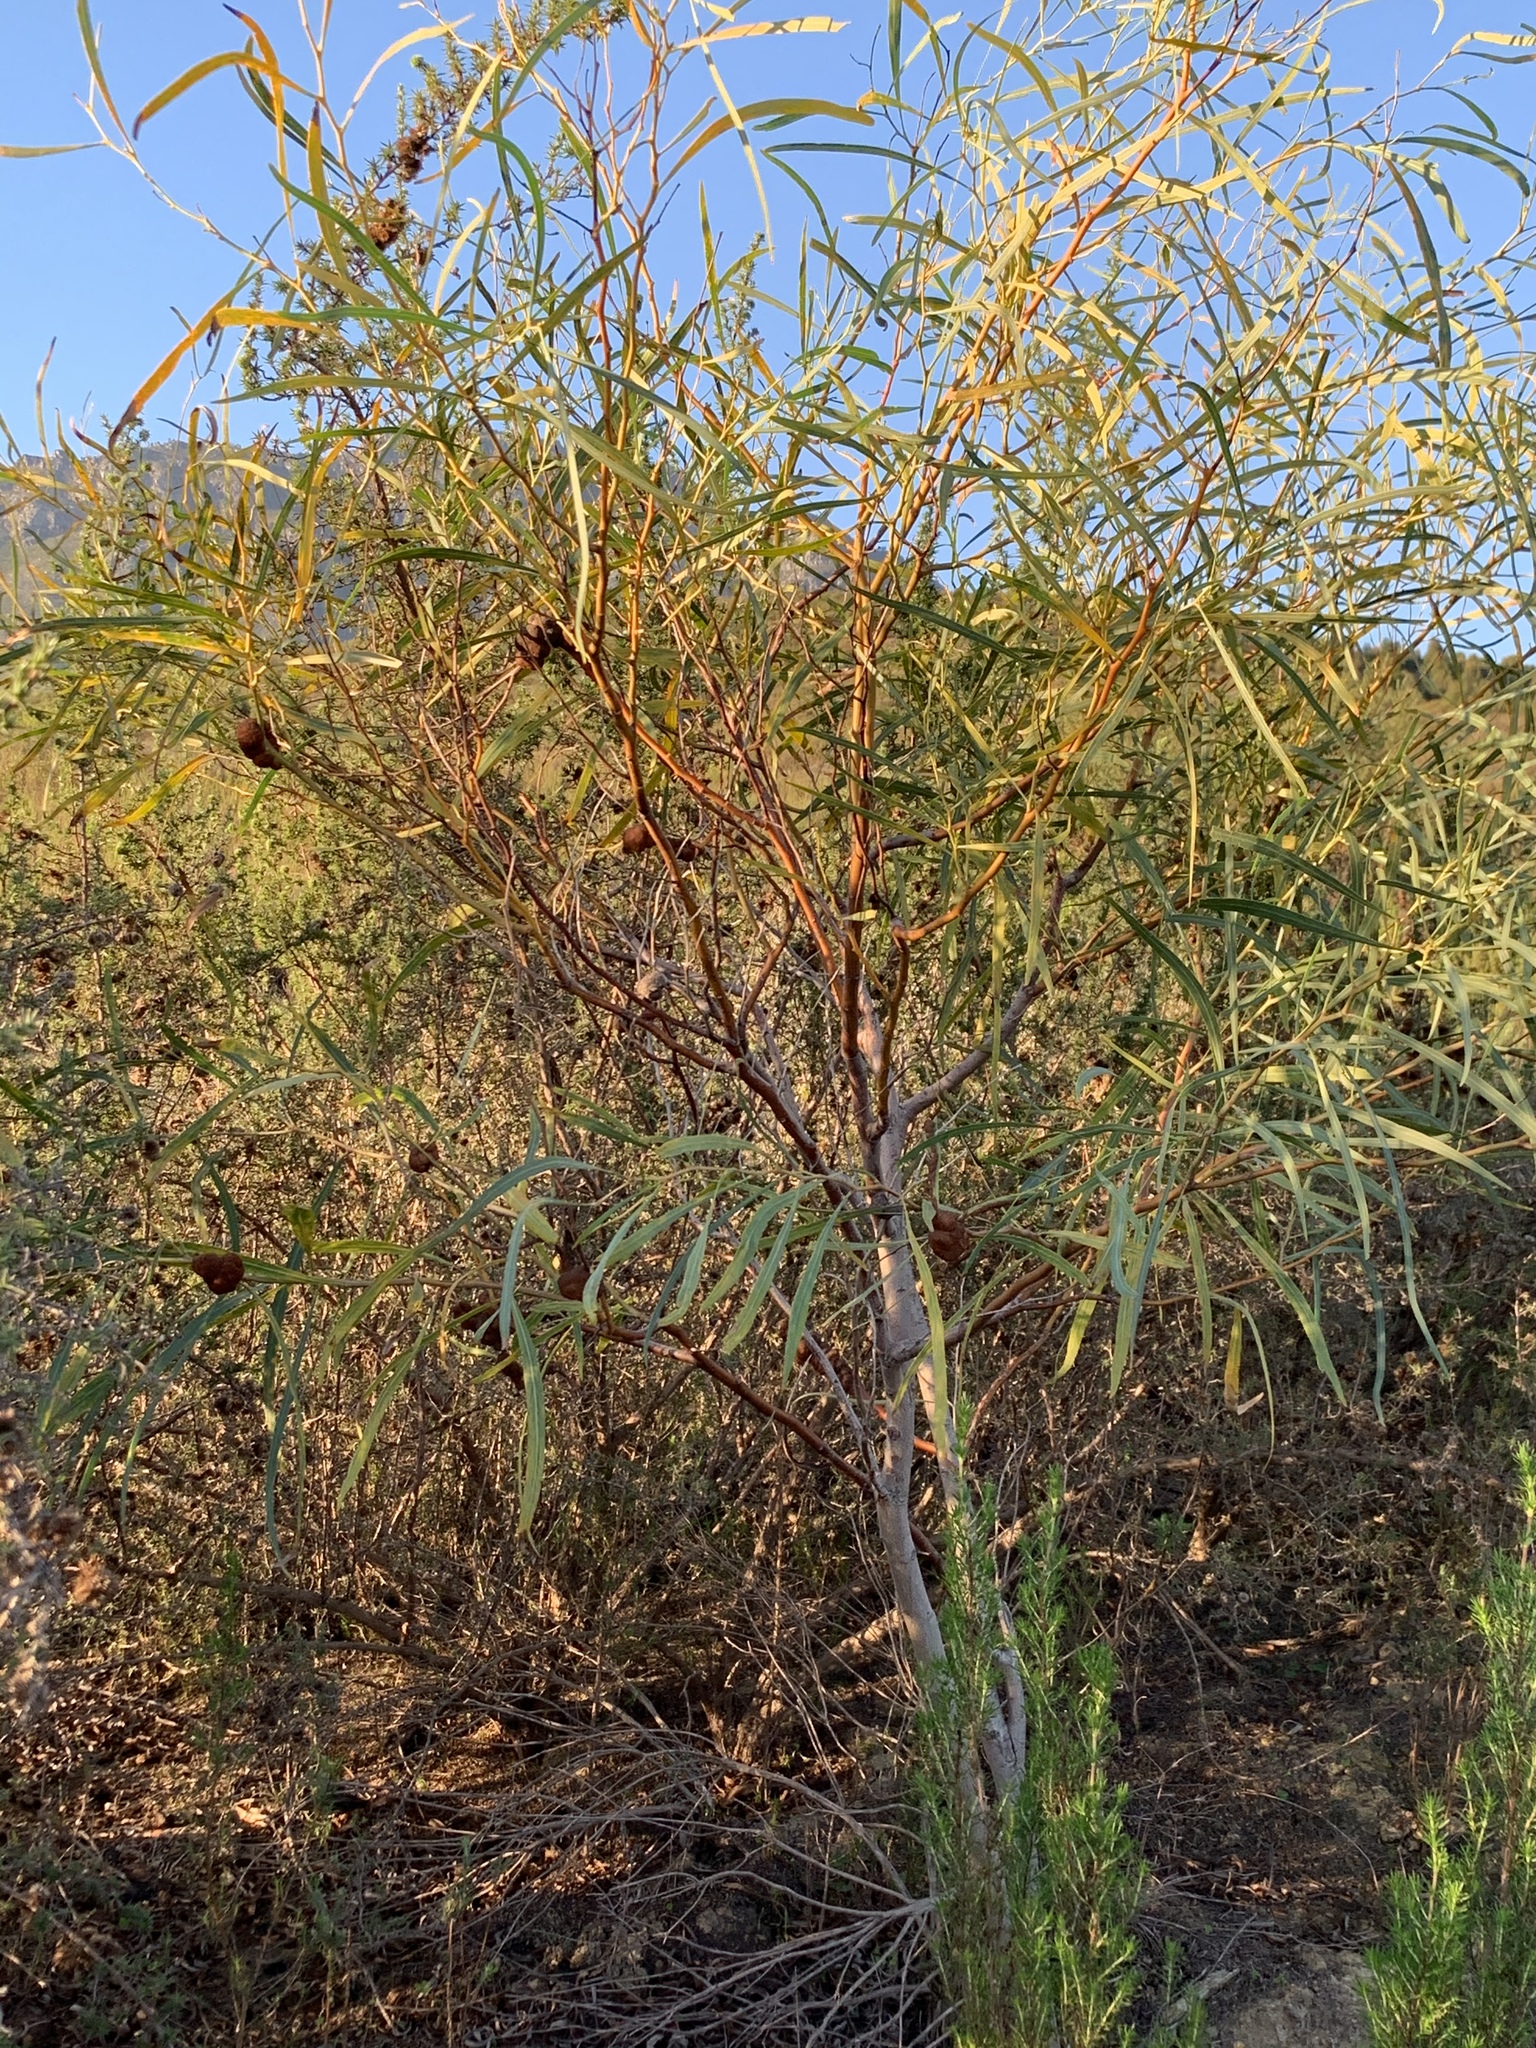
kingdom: Plantae
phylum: Tracheophyta
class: Magnoliopsida
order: Fabales
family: Fabaceae
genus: Acacia
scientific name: Acacia saligna
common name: Orange wattle
